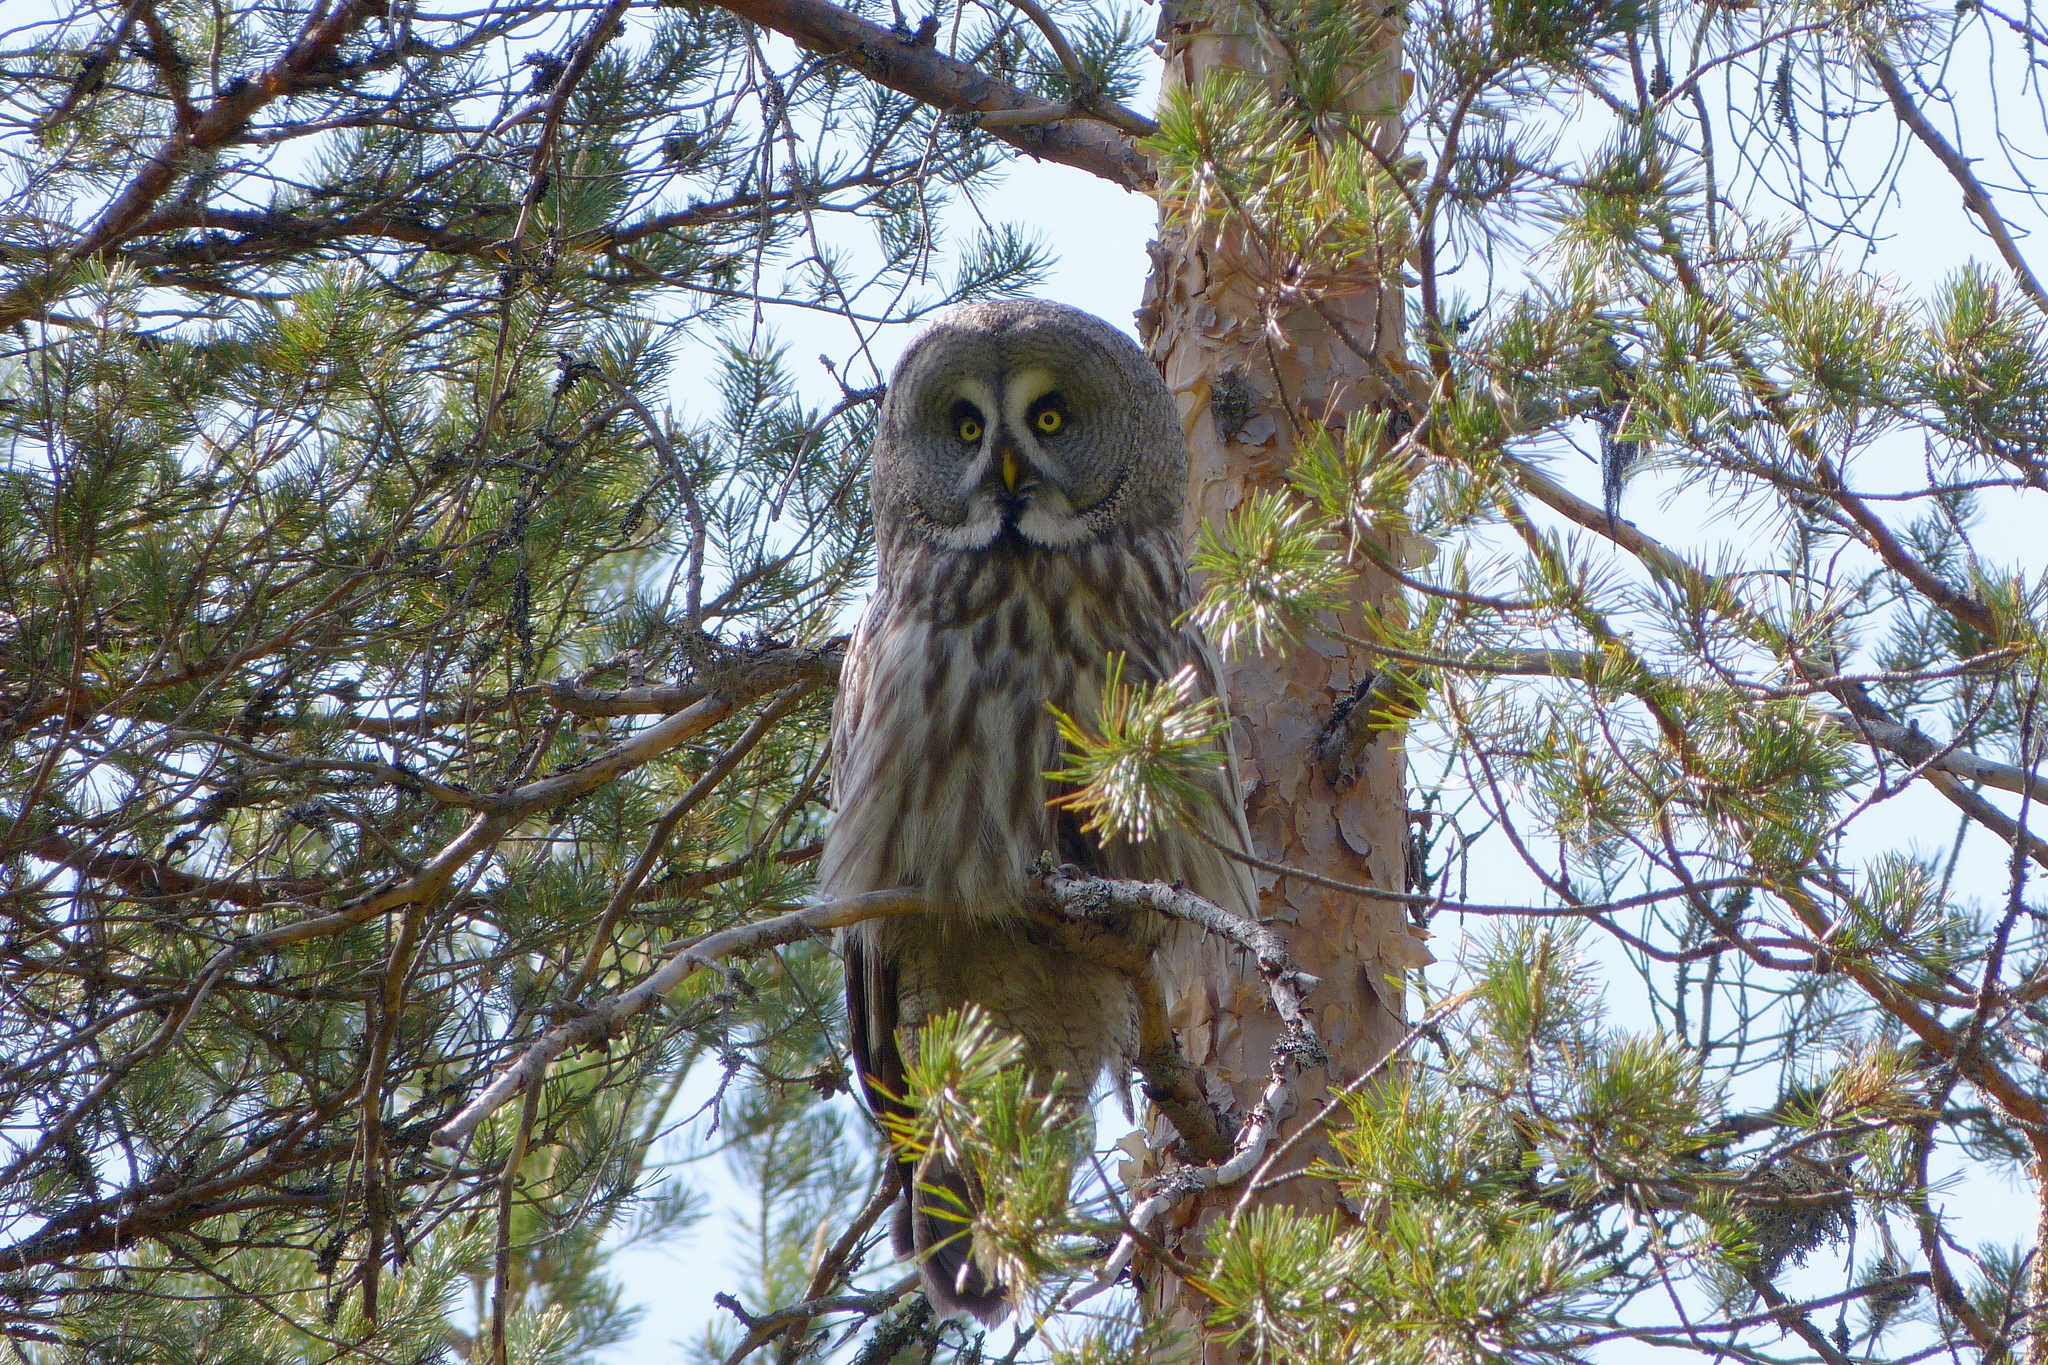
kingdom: Animalia
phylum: Chordata
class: Aves
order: Strigiformes
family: Strigidae
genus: Strix
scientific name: Strix nebulosa
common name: Great grey owl
